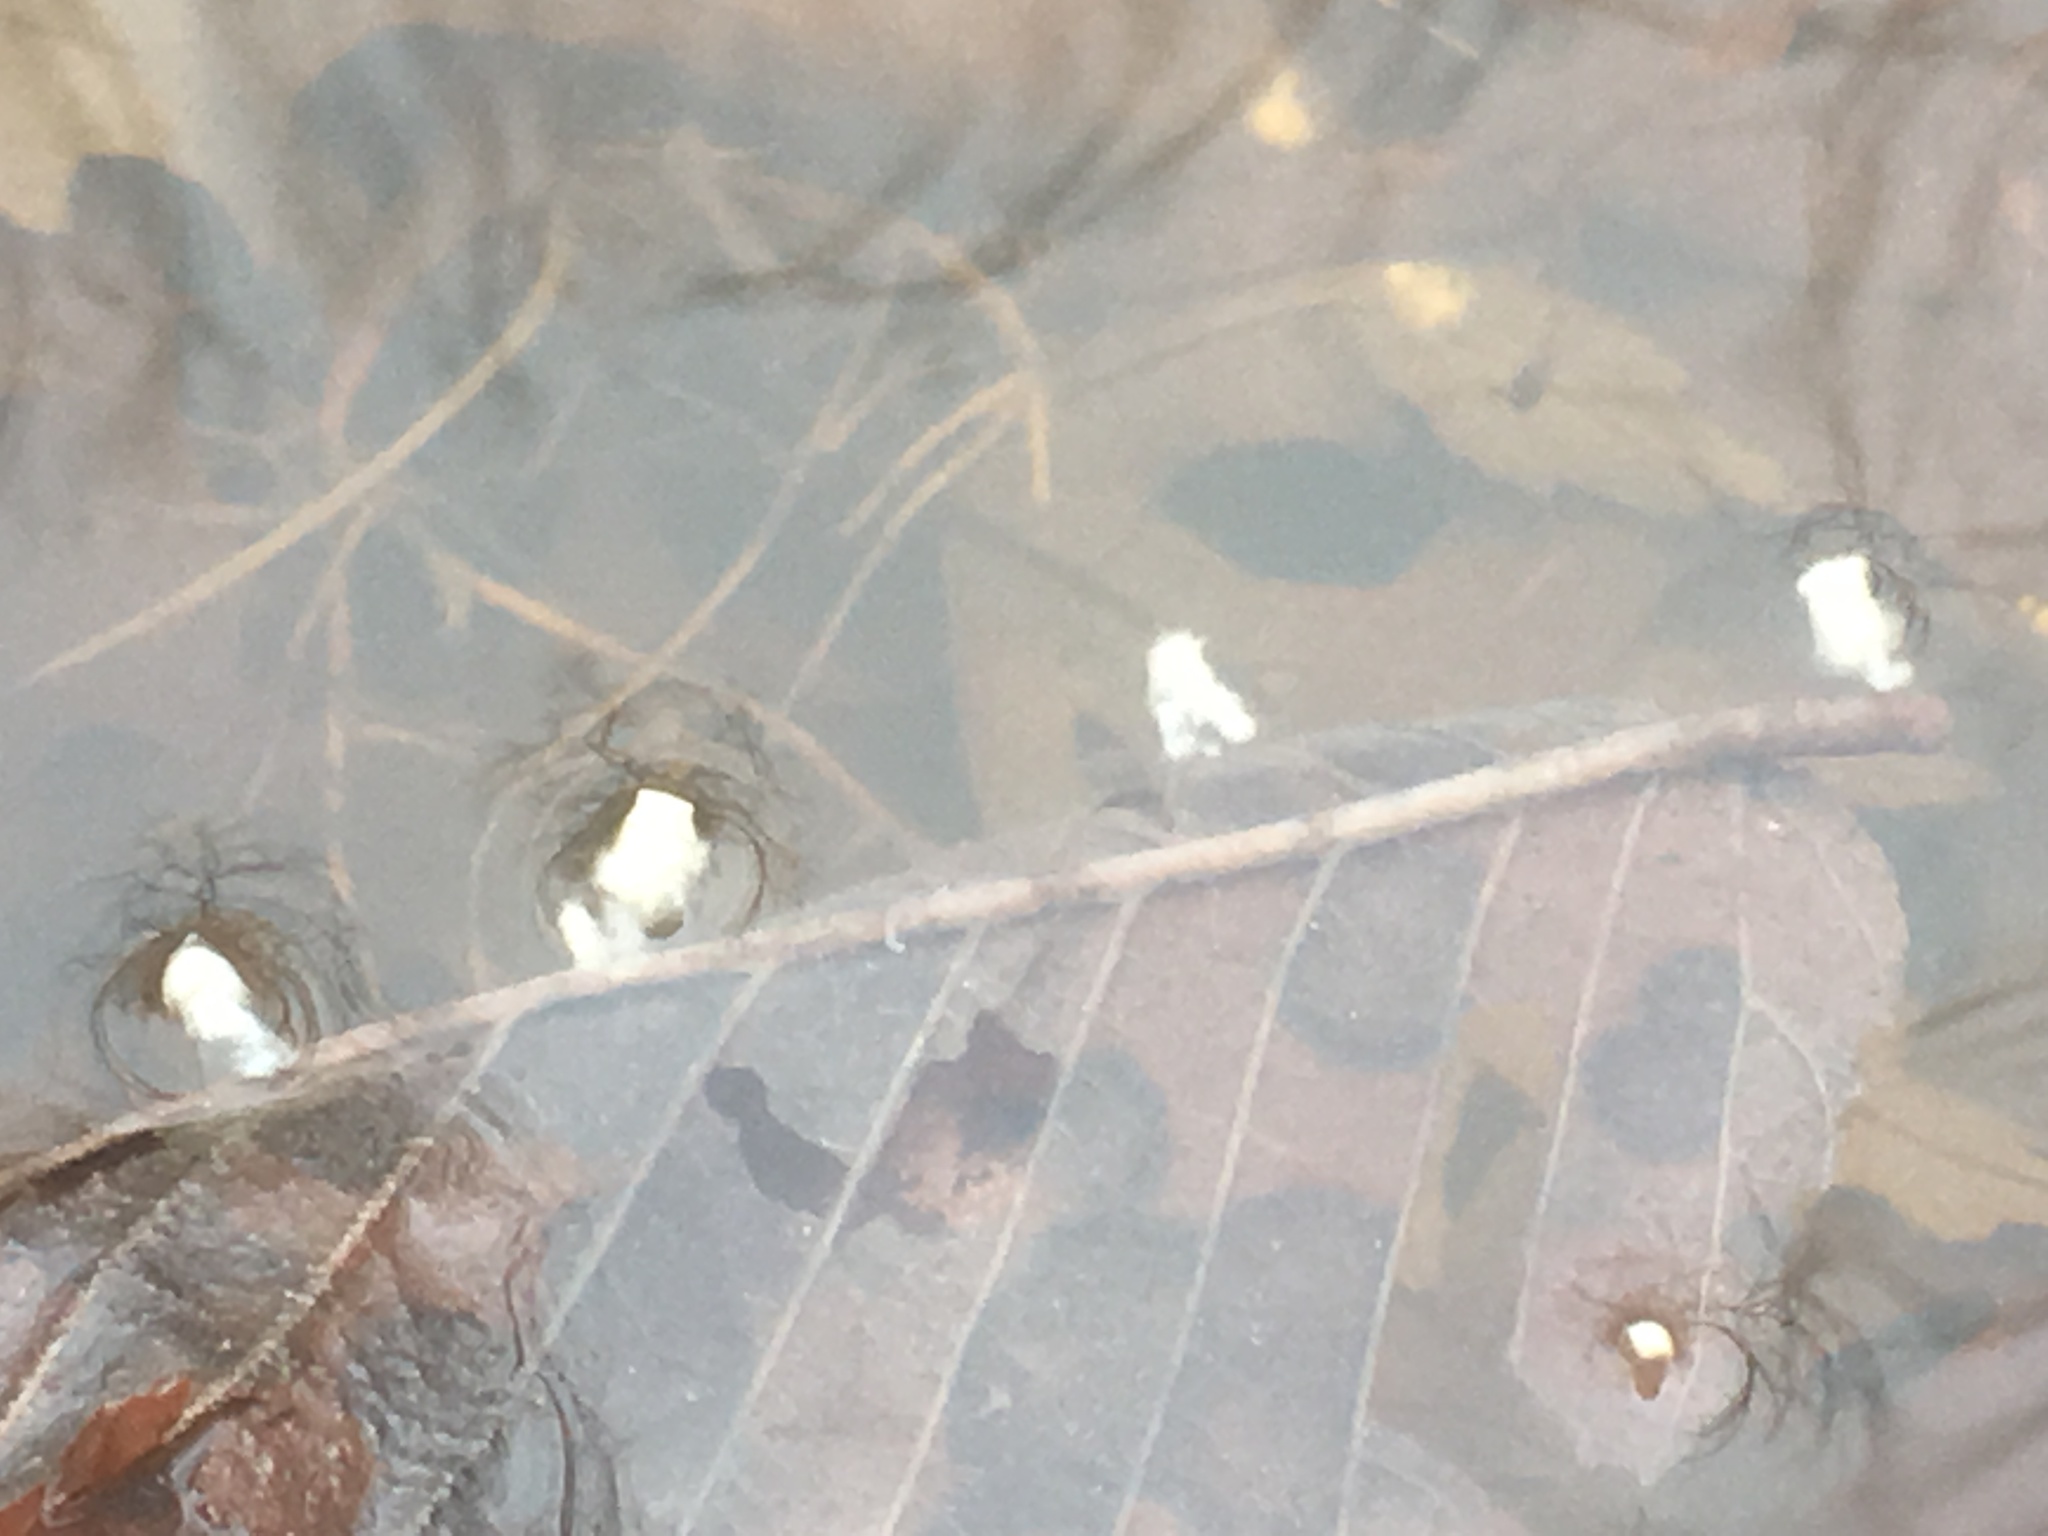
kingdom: Animalia
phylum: Chordata
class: Amphibia
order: Caudata
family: Ambystomatidae
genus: Ambystoma
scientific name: Ambystoma texanum
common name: Small-mouth salamander
